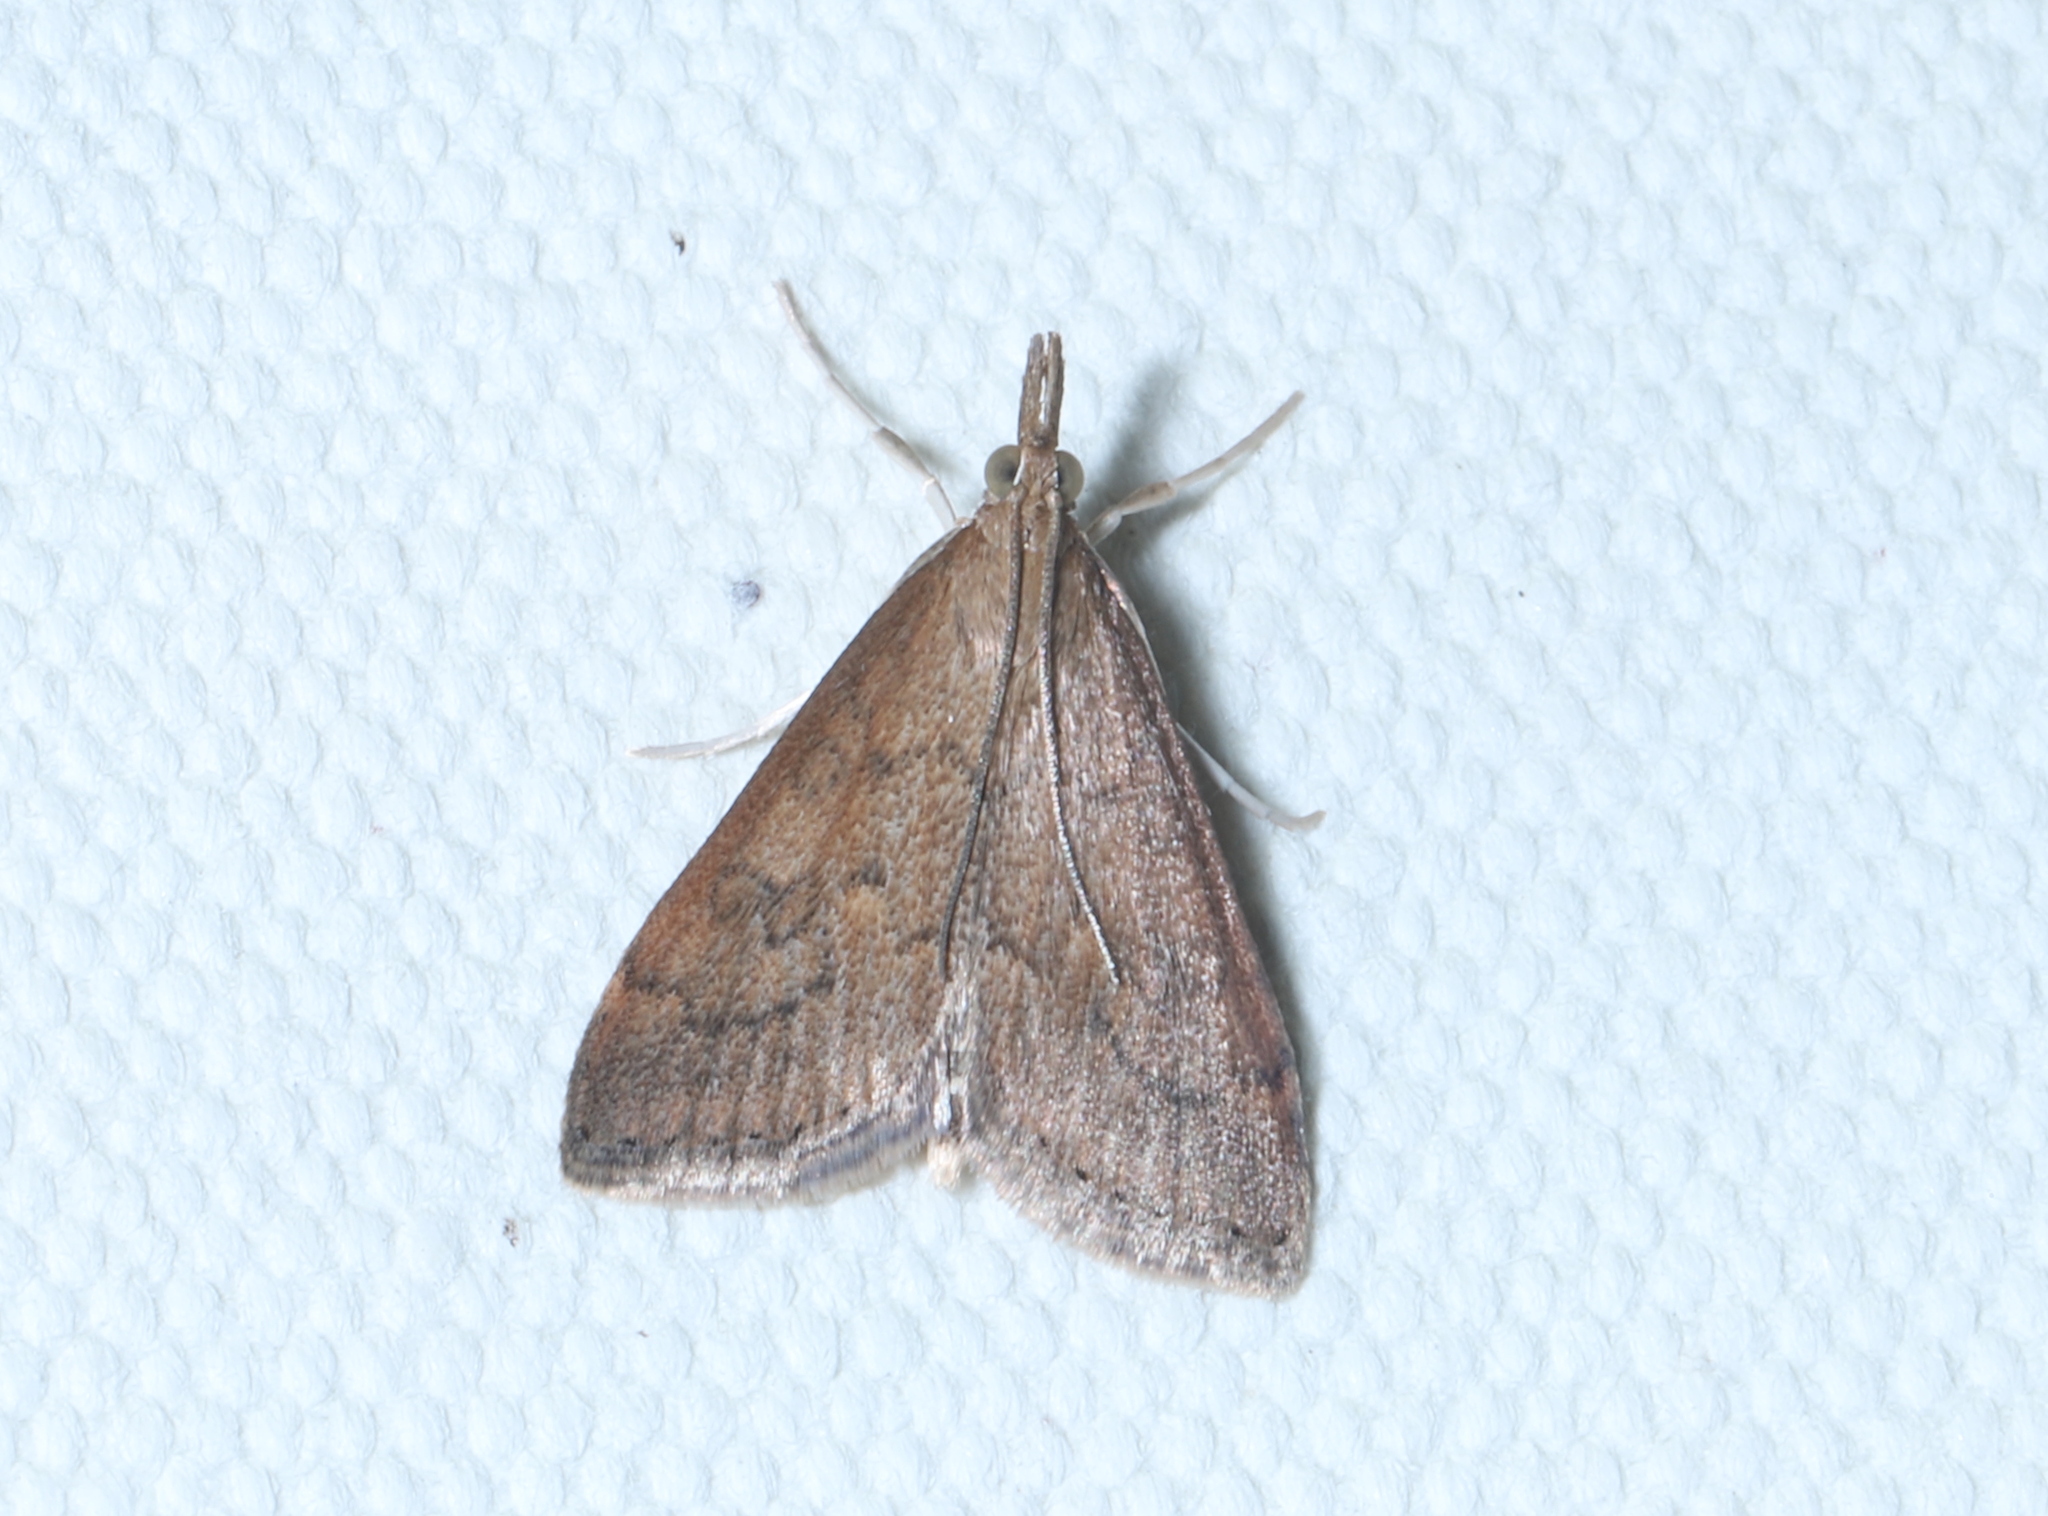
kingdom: Animalia
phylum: Arthropoda
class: Insecta
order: Lepidoptera
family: Crambidae
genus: Udea
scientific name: Udea rubigalis
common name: Celery leaftier moth
